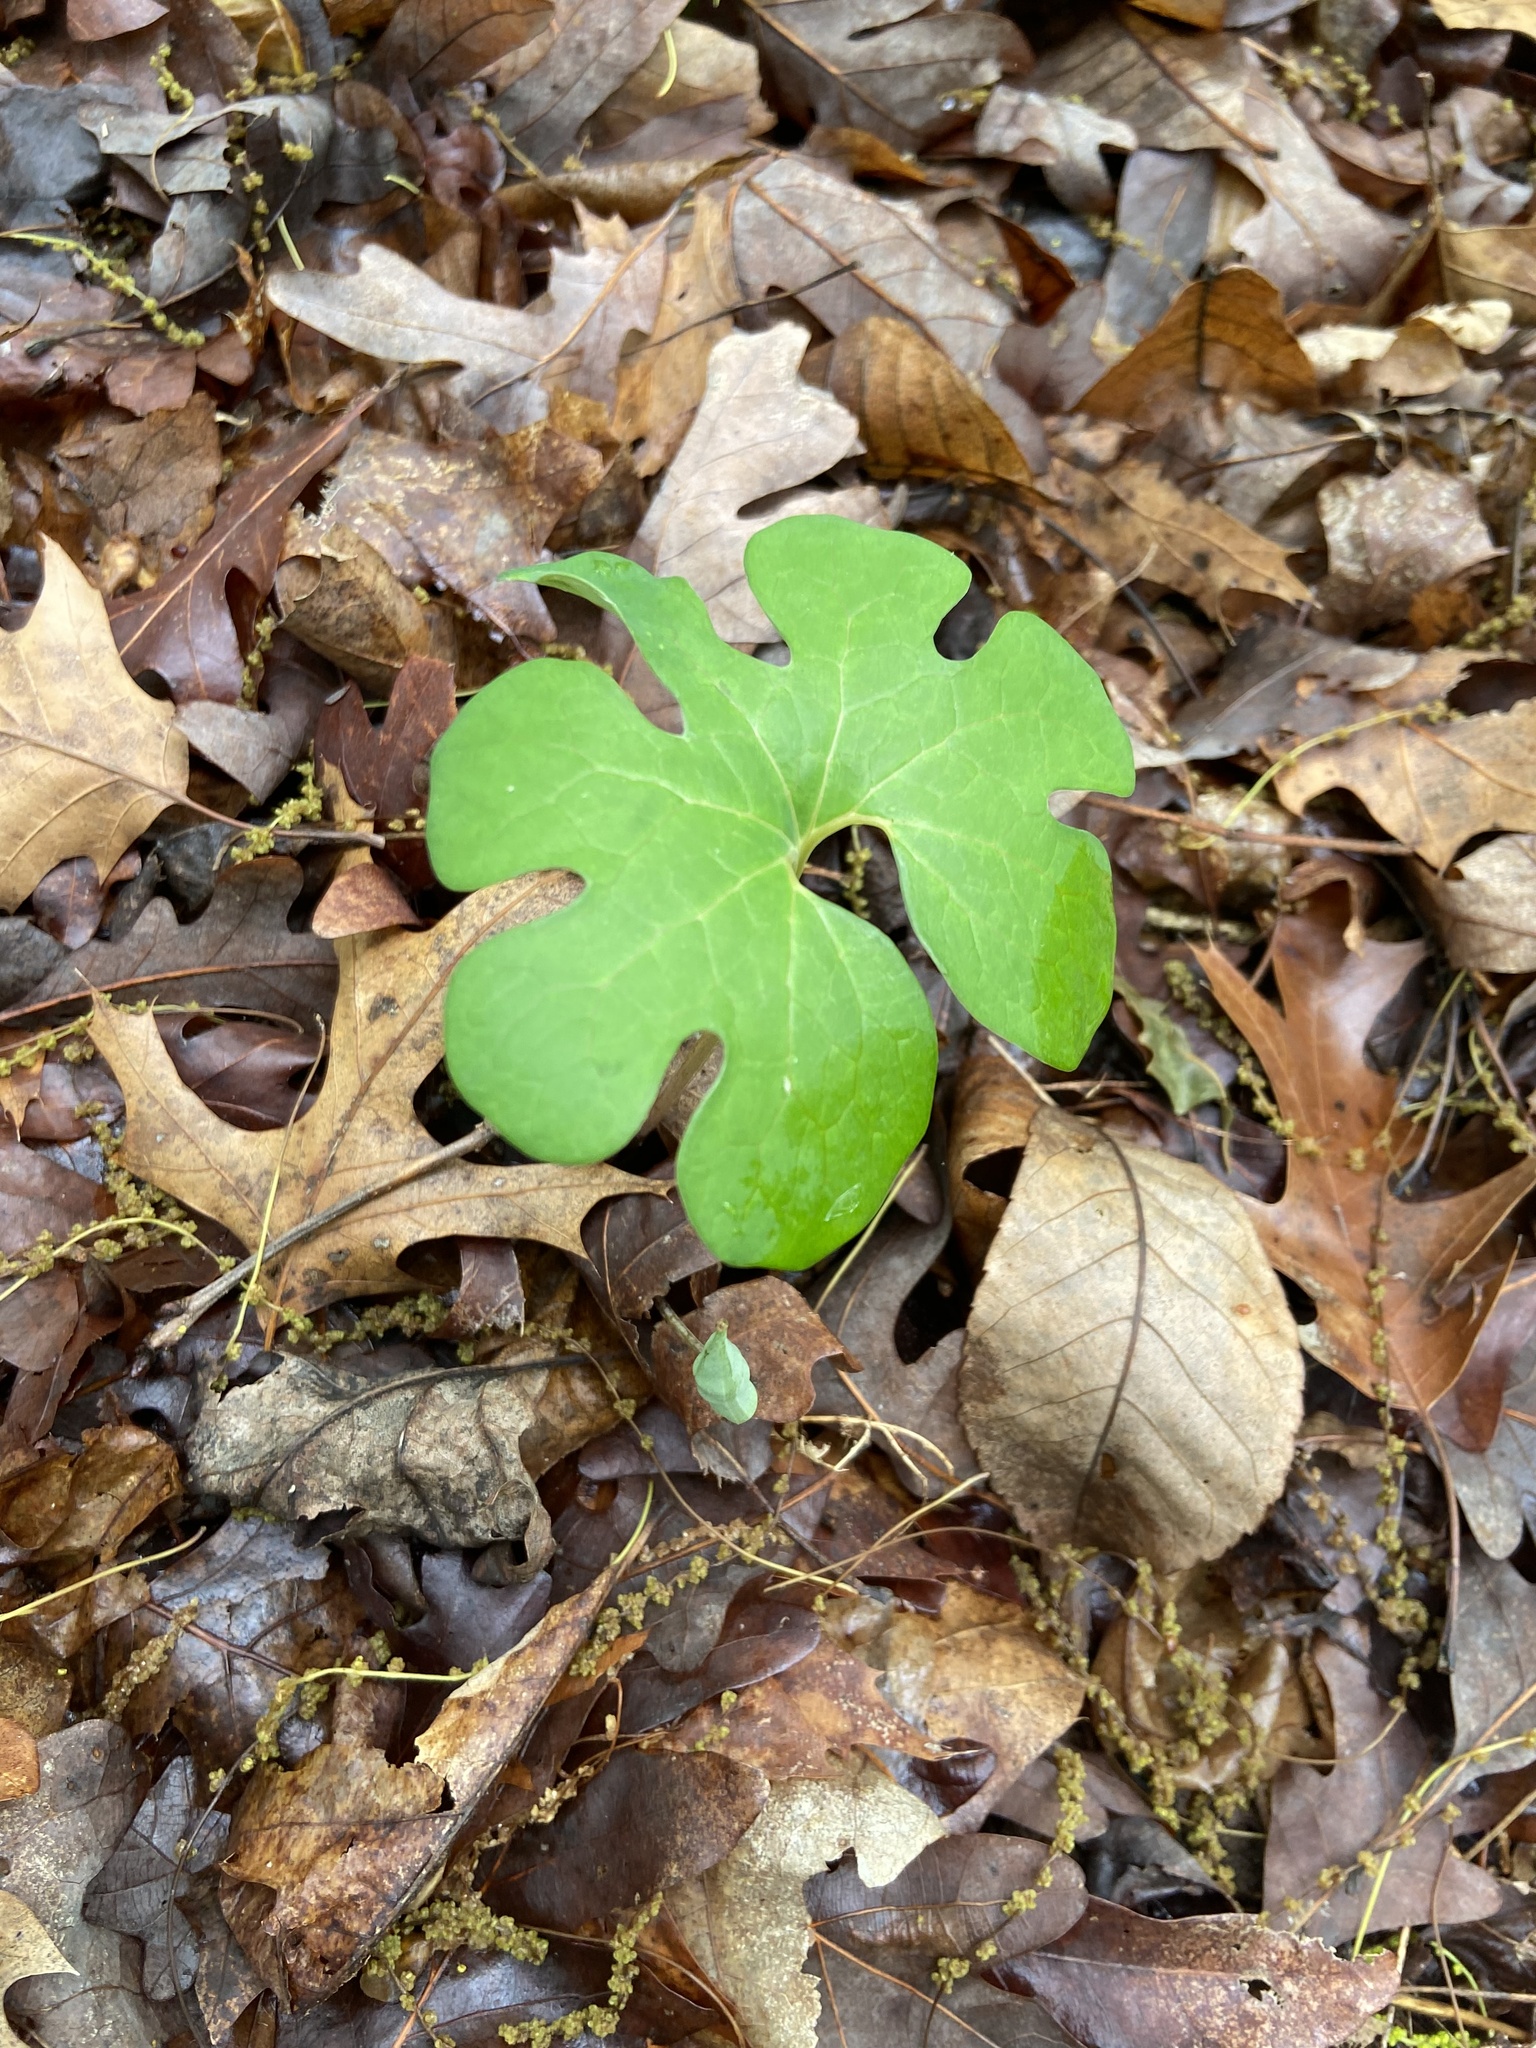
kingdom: Plantae
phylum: Tracheophyta
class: Magnoliopsida
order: Ranunculales
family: Papaveraceae
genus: Sanguinaria
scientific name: Sanguinaria canadensis
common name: Bloodroot
